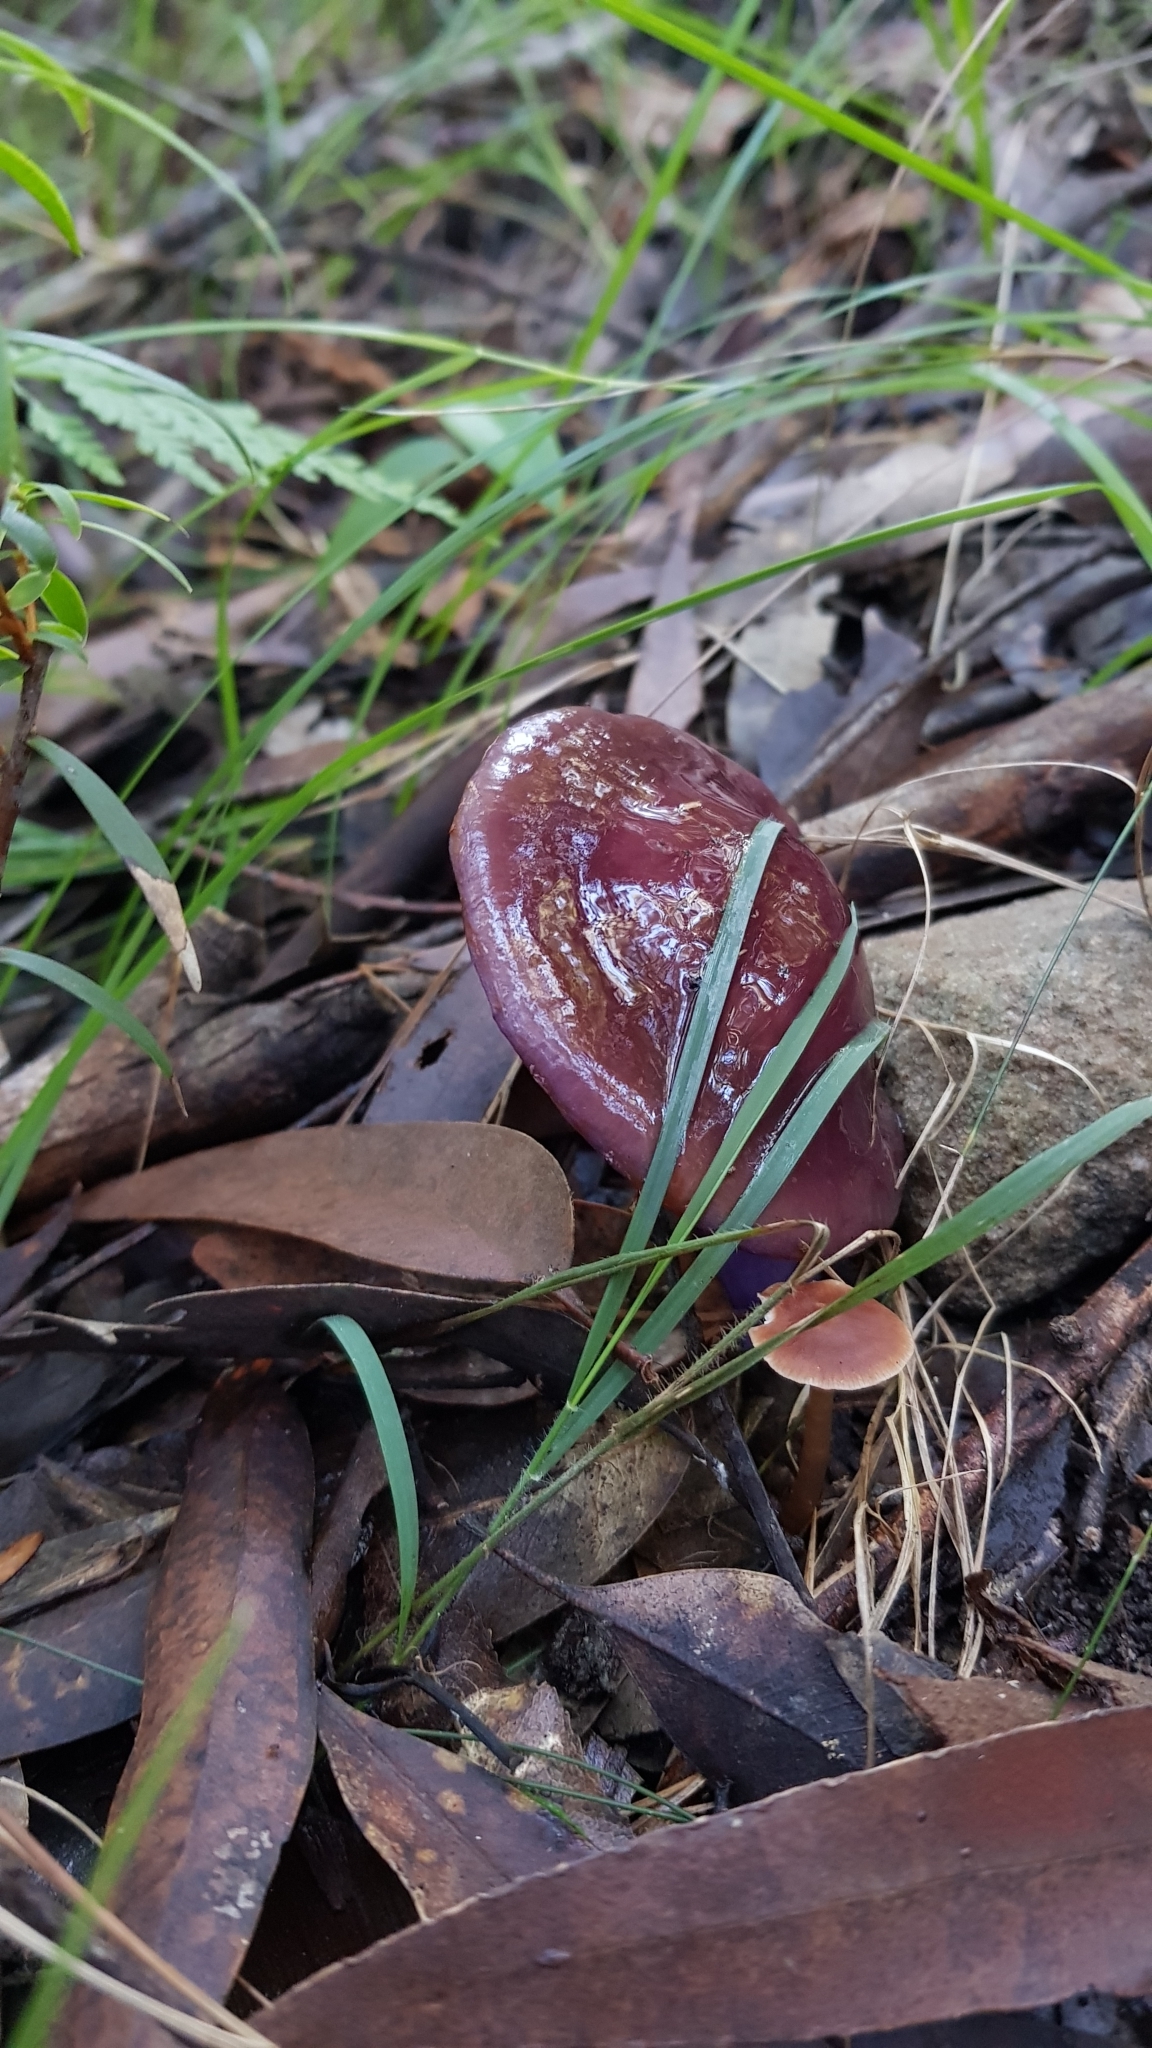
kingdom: Fungi
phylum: Basidiomycota
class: Agaricomycetes
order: Agaricales
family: Cortinariaceae
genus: Cortinarius
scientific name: Cortinarius archeri
